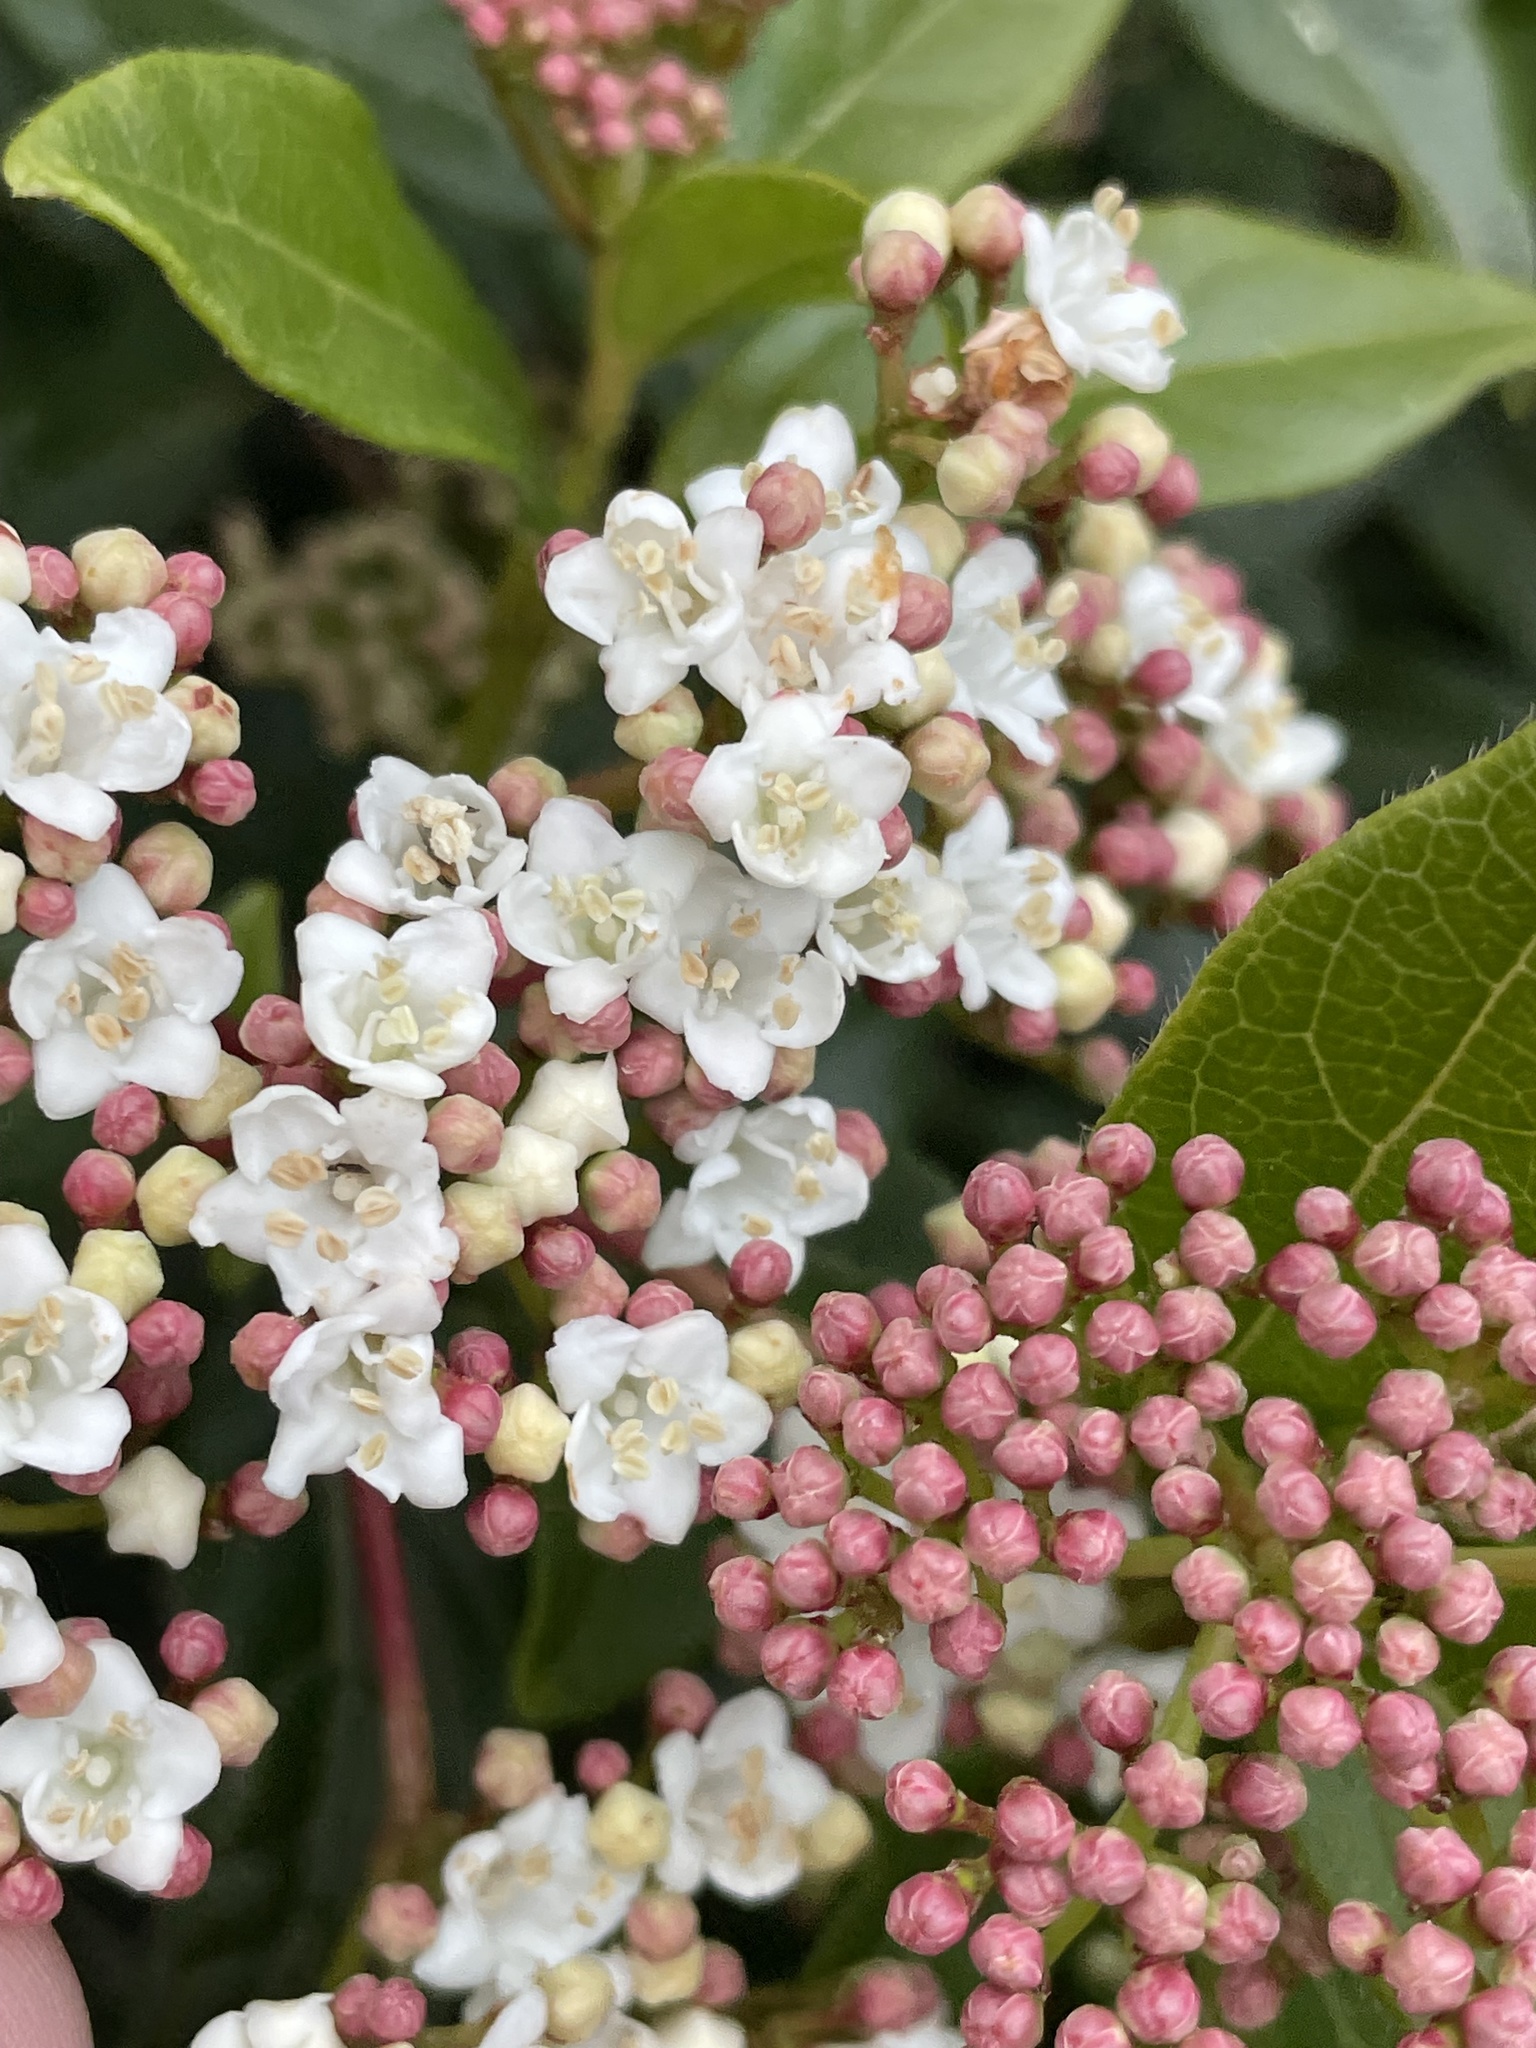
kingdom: Plantae
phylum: Tracheophyta
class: Magnoliopsida
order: Dipsacales
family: Viburnaceae
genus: Viburnum
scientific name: Viburnum tinus
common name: Laurustinus
